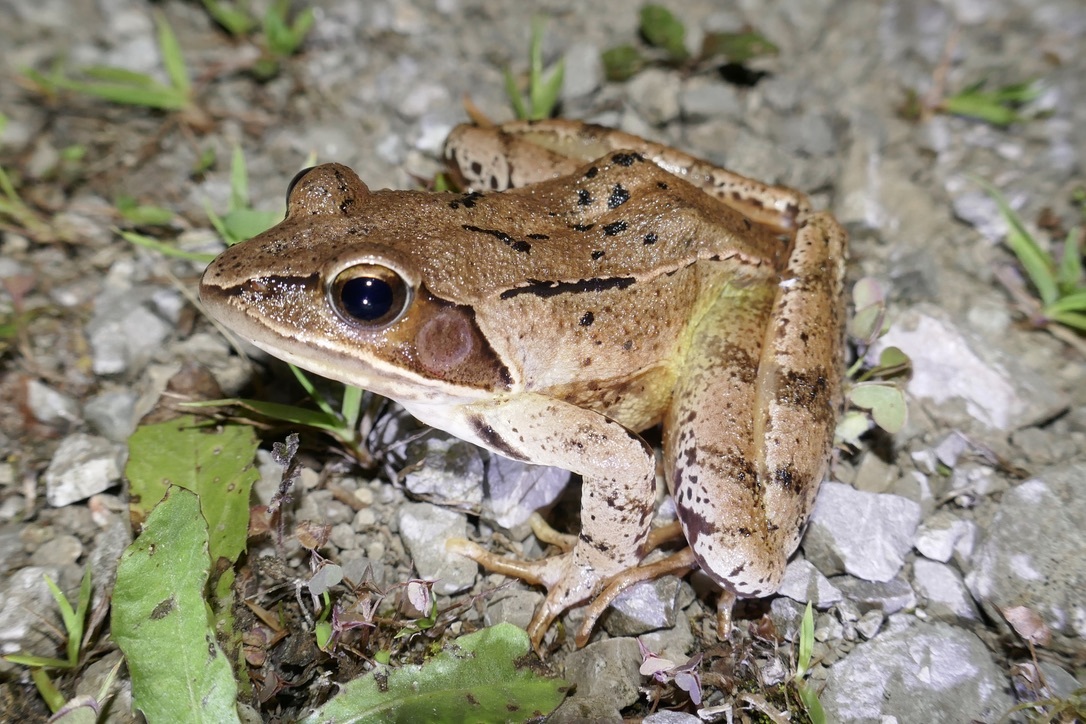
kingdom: Animalia
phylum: Chordata
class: Amphibia
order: Anura
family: Ranidae
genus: Rana
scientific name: Rana dalmatina
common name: Agile frog
